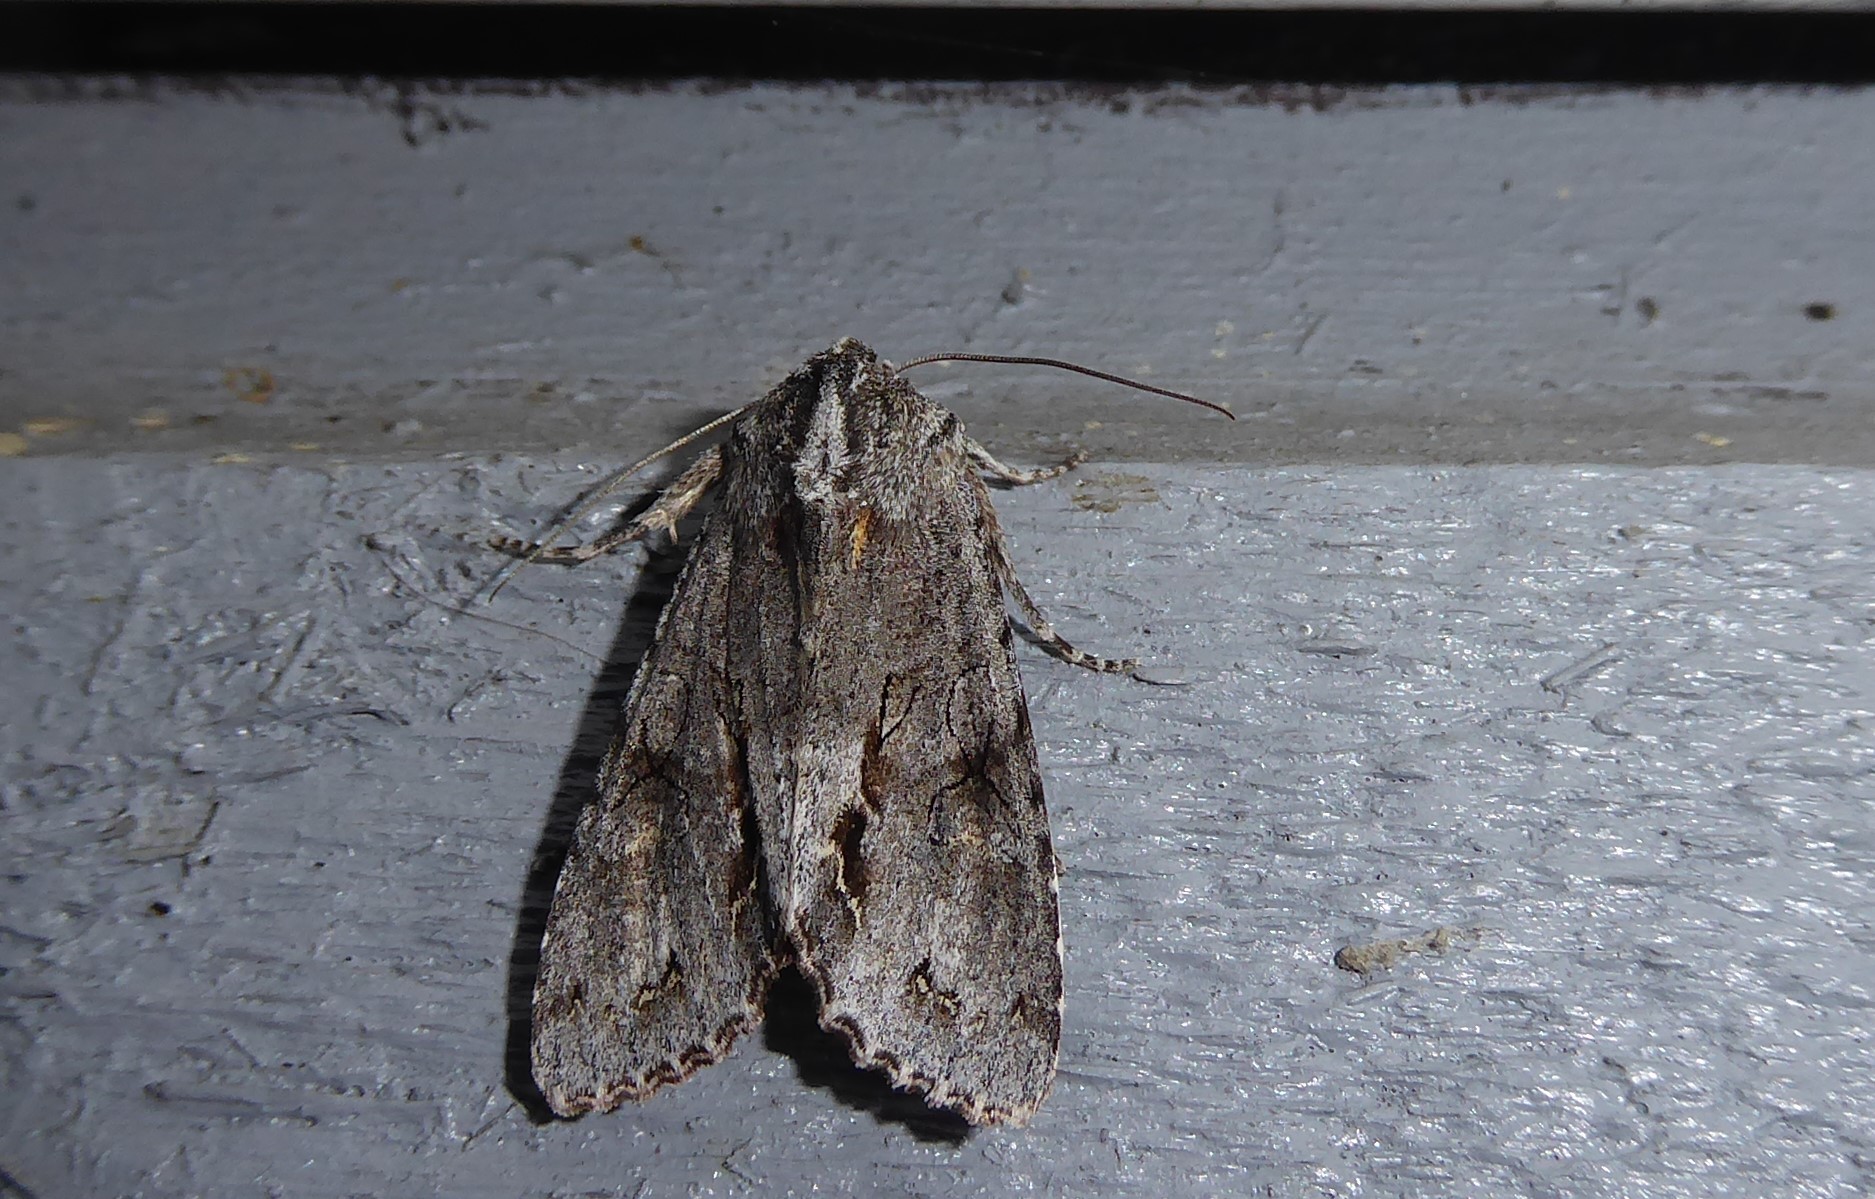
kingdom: Animalia
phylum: Arthropoda
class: Insecta
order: Lepidoptera
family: Noctuidae
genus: Ichneutica
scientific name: Ichneutica
